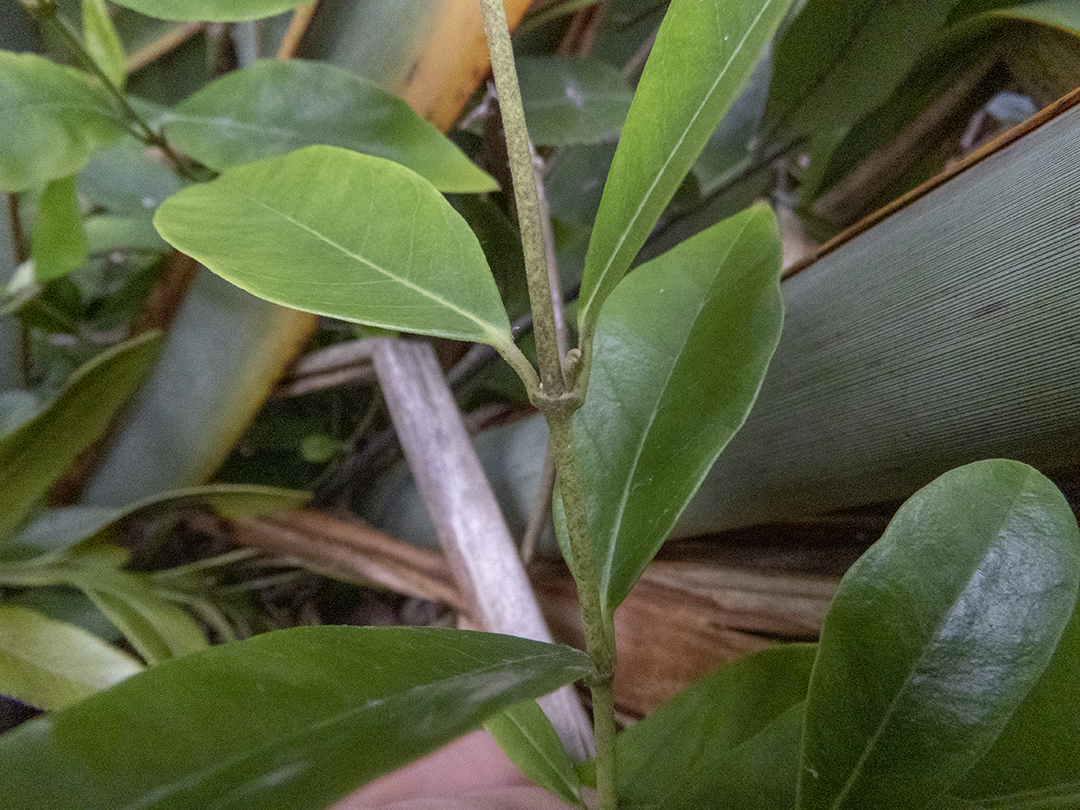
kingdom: Plantae
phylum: Tracheophyta
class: Magnoliopsida
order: Gentianales
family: Apocynaceae
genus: Parsonsia
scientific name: Parsonsia heterophylla
